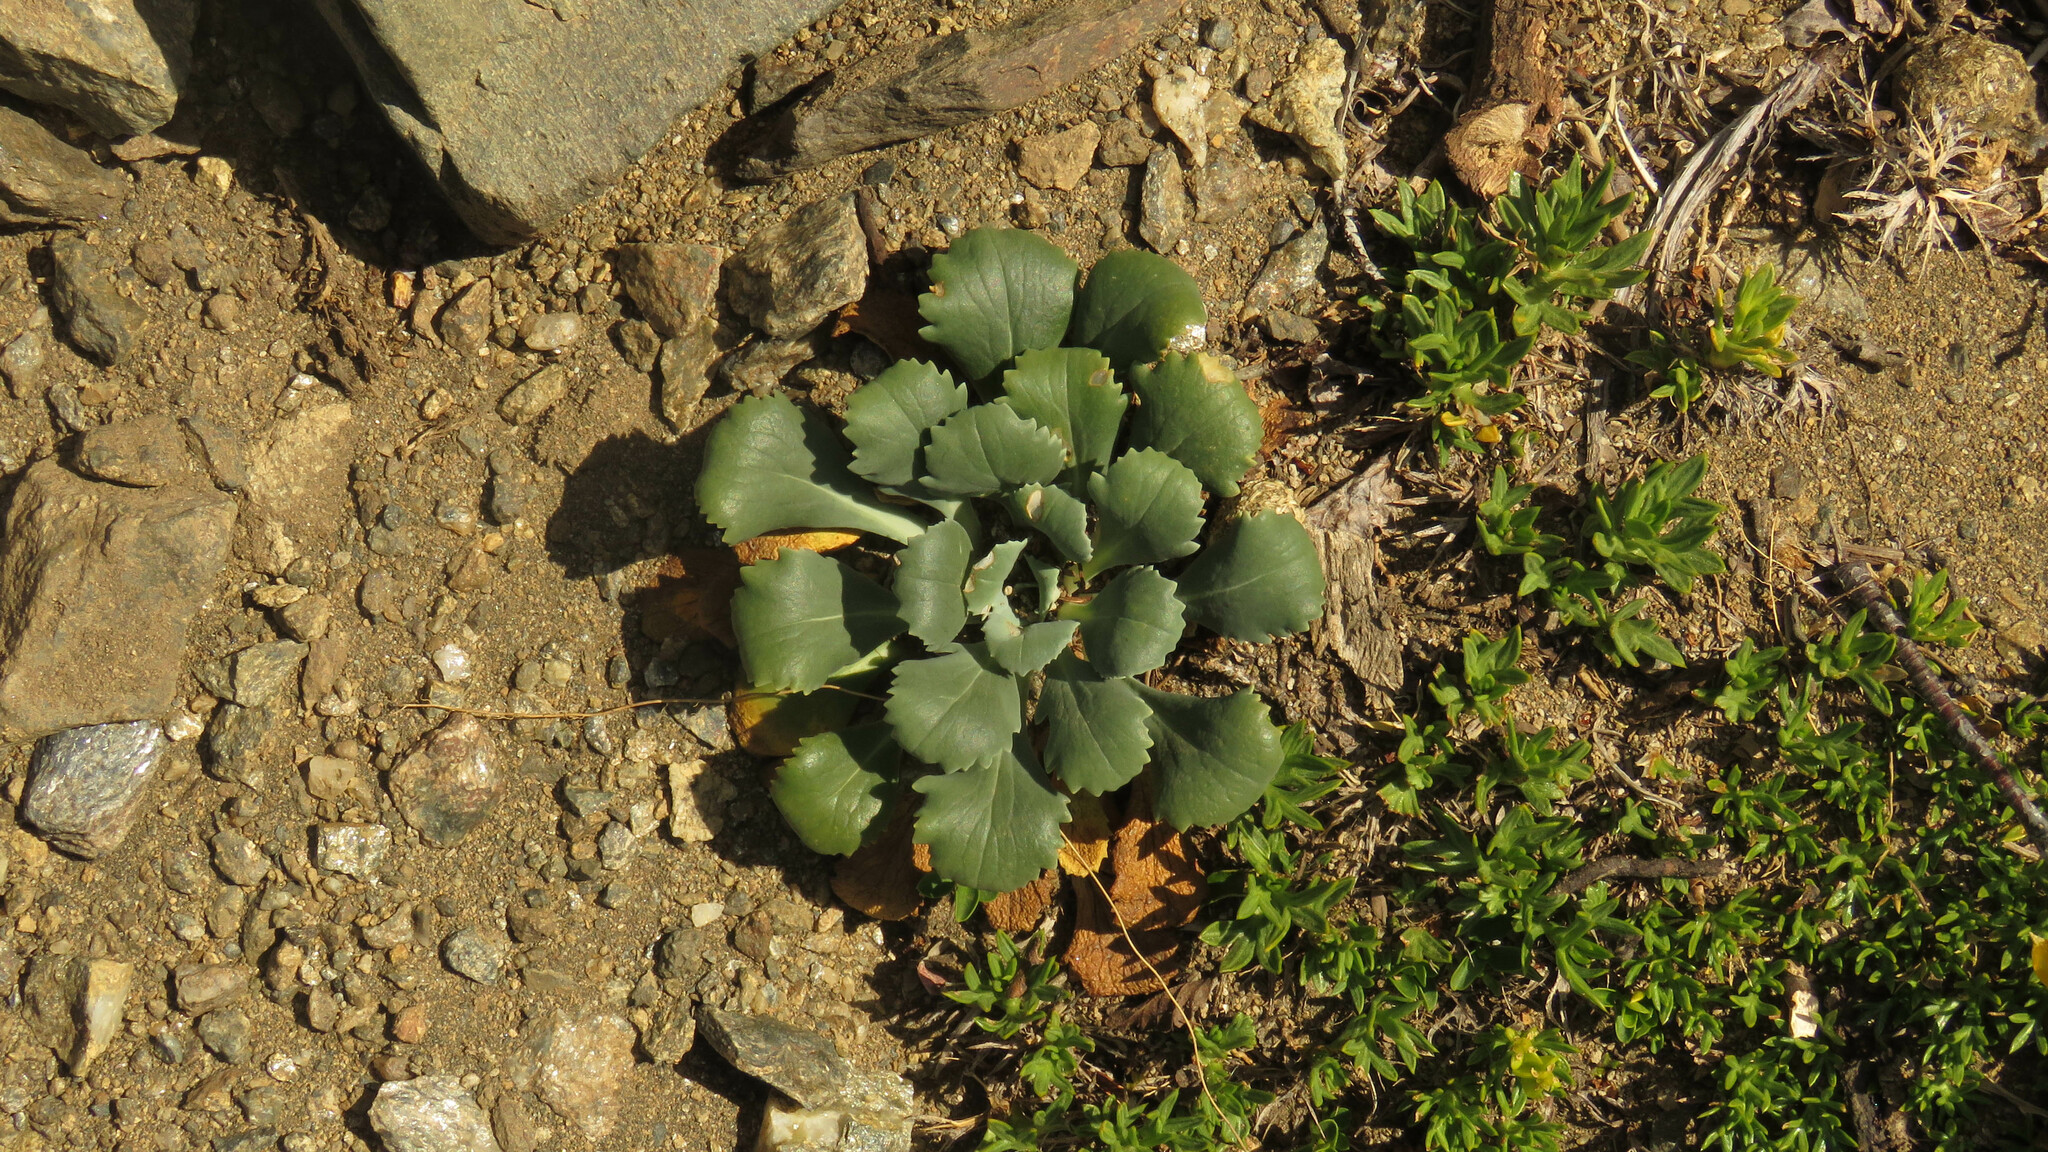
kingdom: Plantae
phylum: Tracheophyta
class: Magnoliopsida
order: Asterales
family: Calyceraceae
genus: Gamocarpha
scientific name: Gamocarpha scapigera
